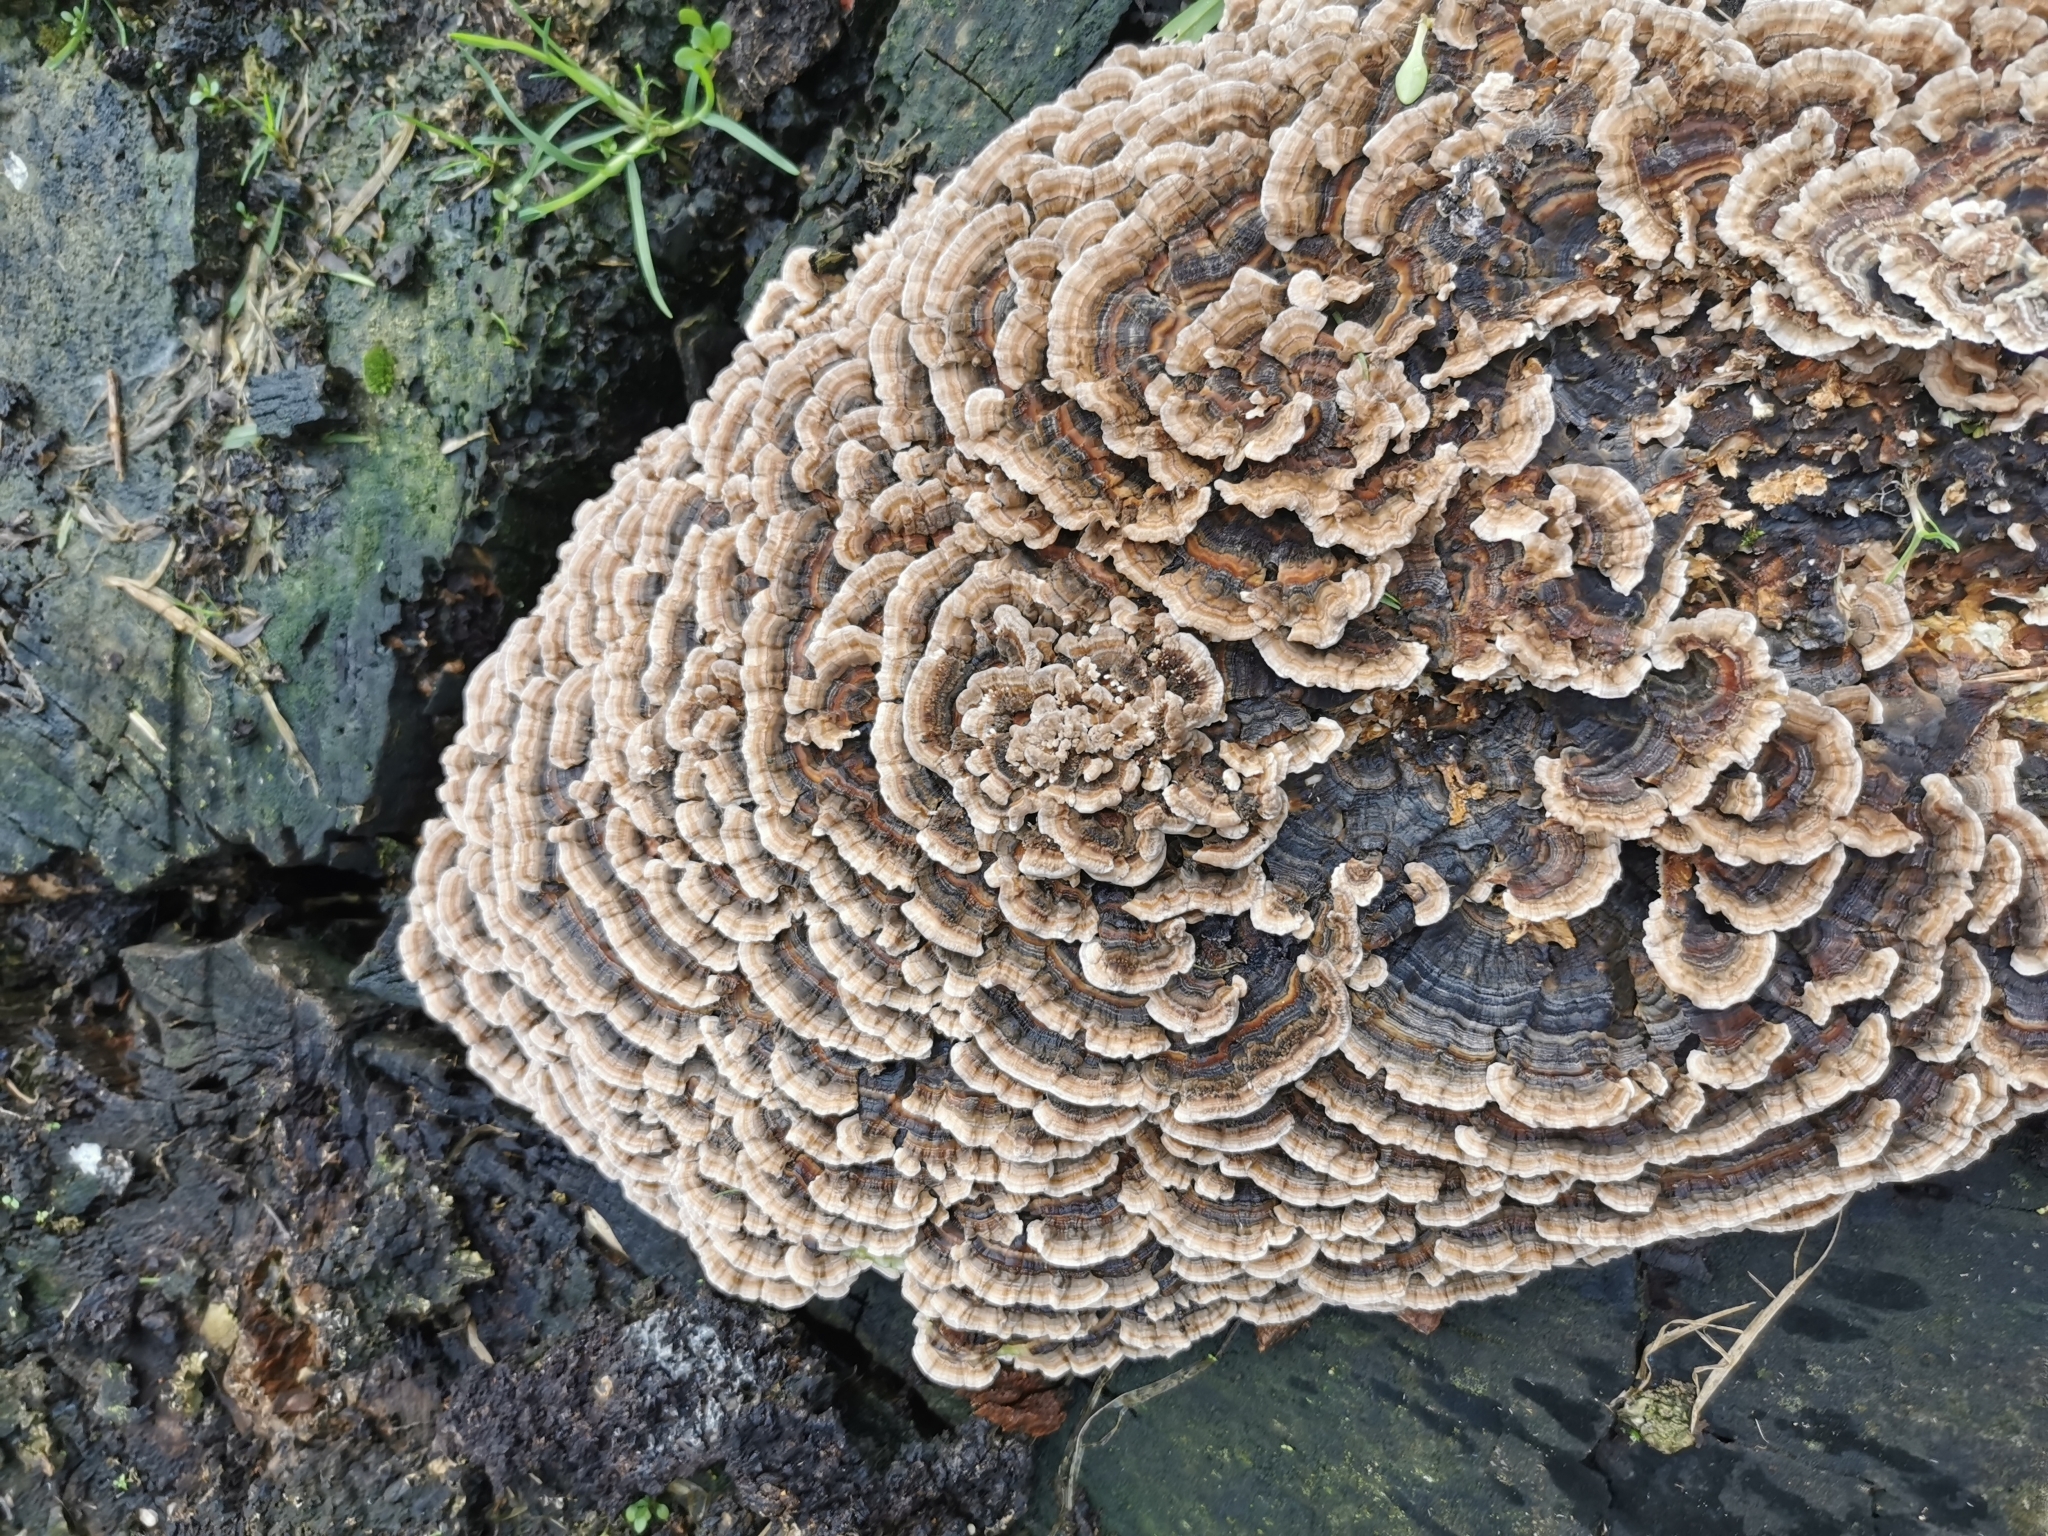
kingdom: Fungi
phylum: Basidiomycota
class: Agaricomycetes
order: Polyporales
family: Polyporaceae
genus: Trametes
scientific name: Trametes versicolor
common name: Turkeytail
